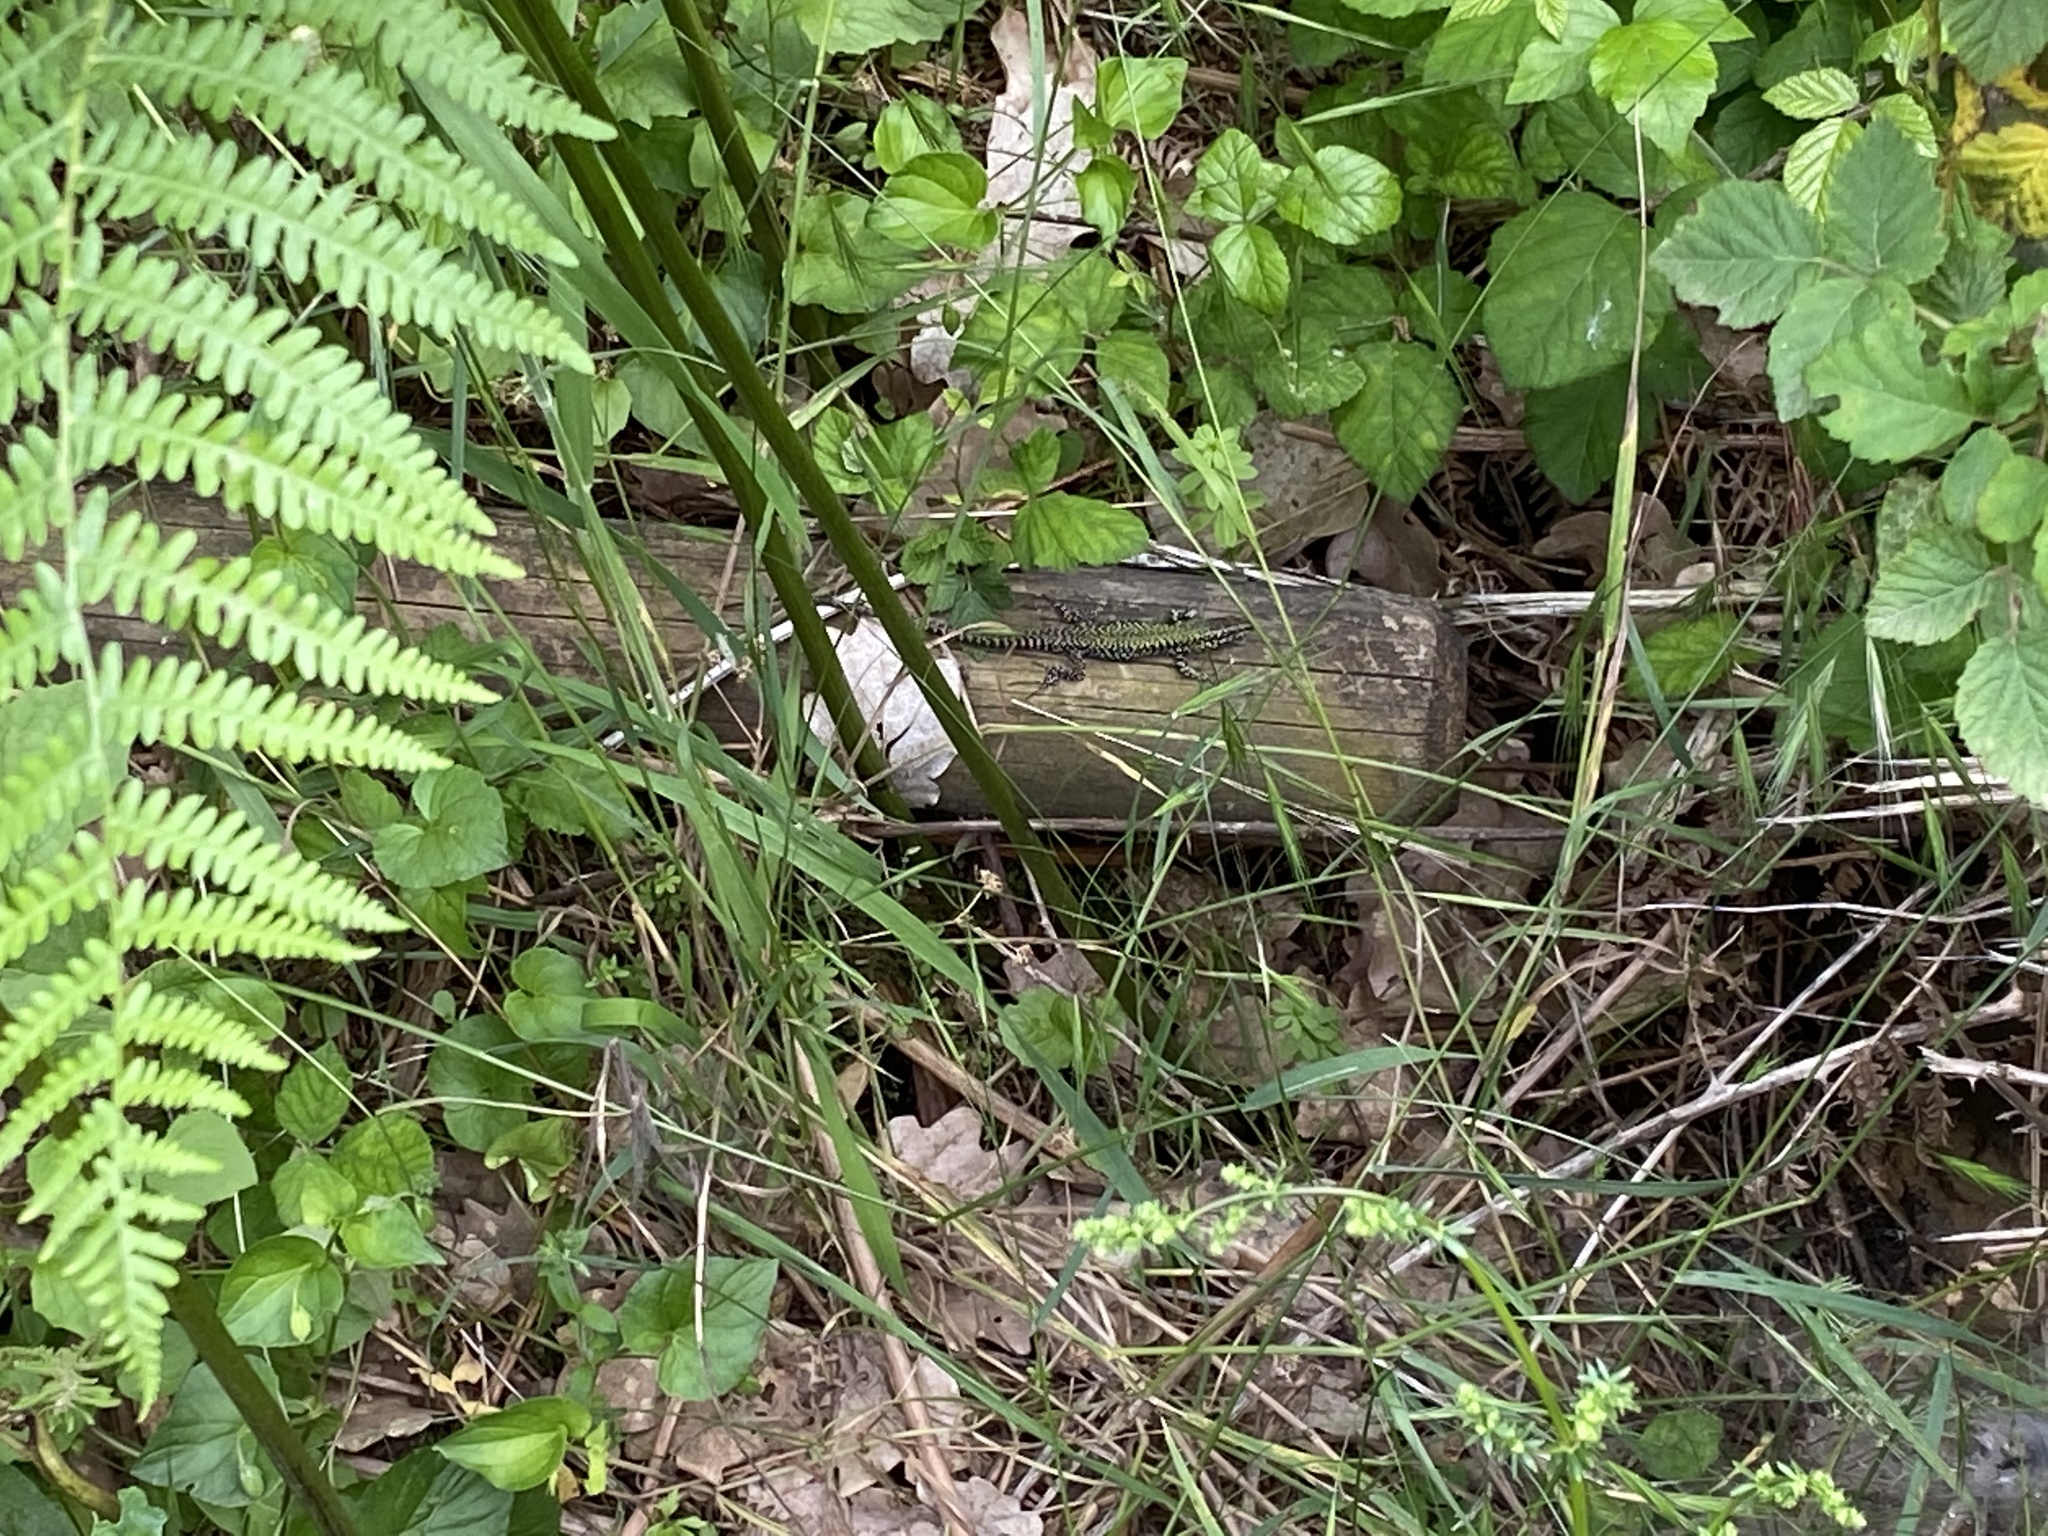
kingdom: Animalia
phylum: Chordata
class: Squamata
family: Lacertidae
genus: Podarcis
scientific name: Podarcis muralis
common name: Common wall lizard
